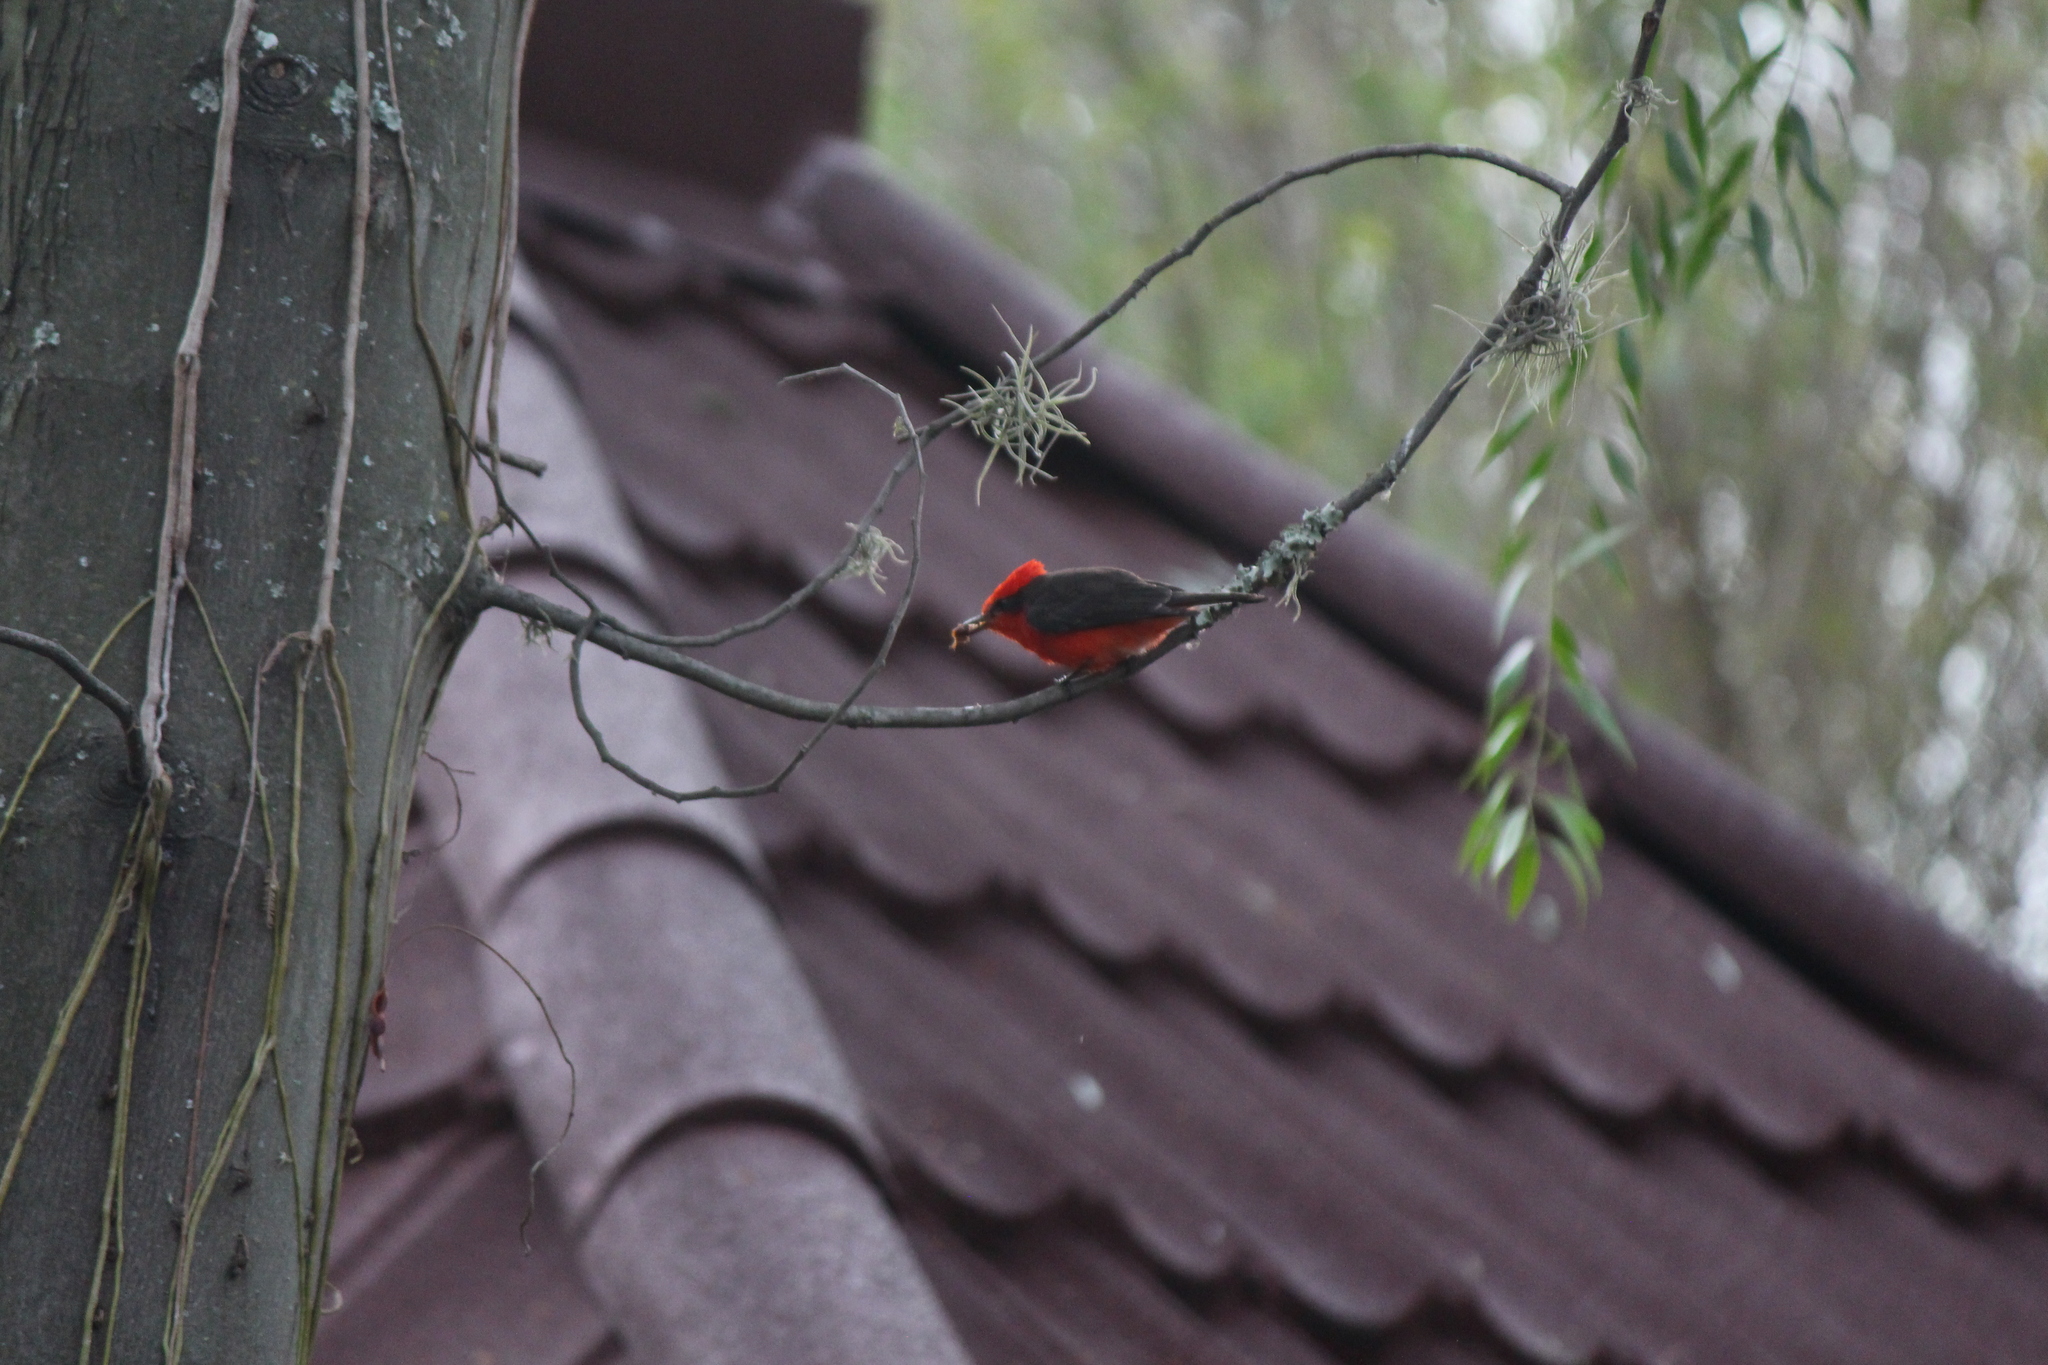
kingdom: Animalia
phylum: Chordata
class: Aves
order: Passeriformes
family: Tyrannidae
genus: Pyrocephalus
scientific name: Pyrocephalus rubinus
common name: Vermilion flycatcher
